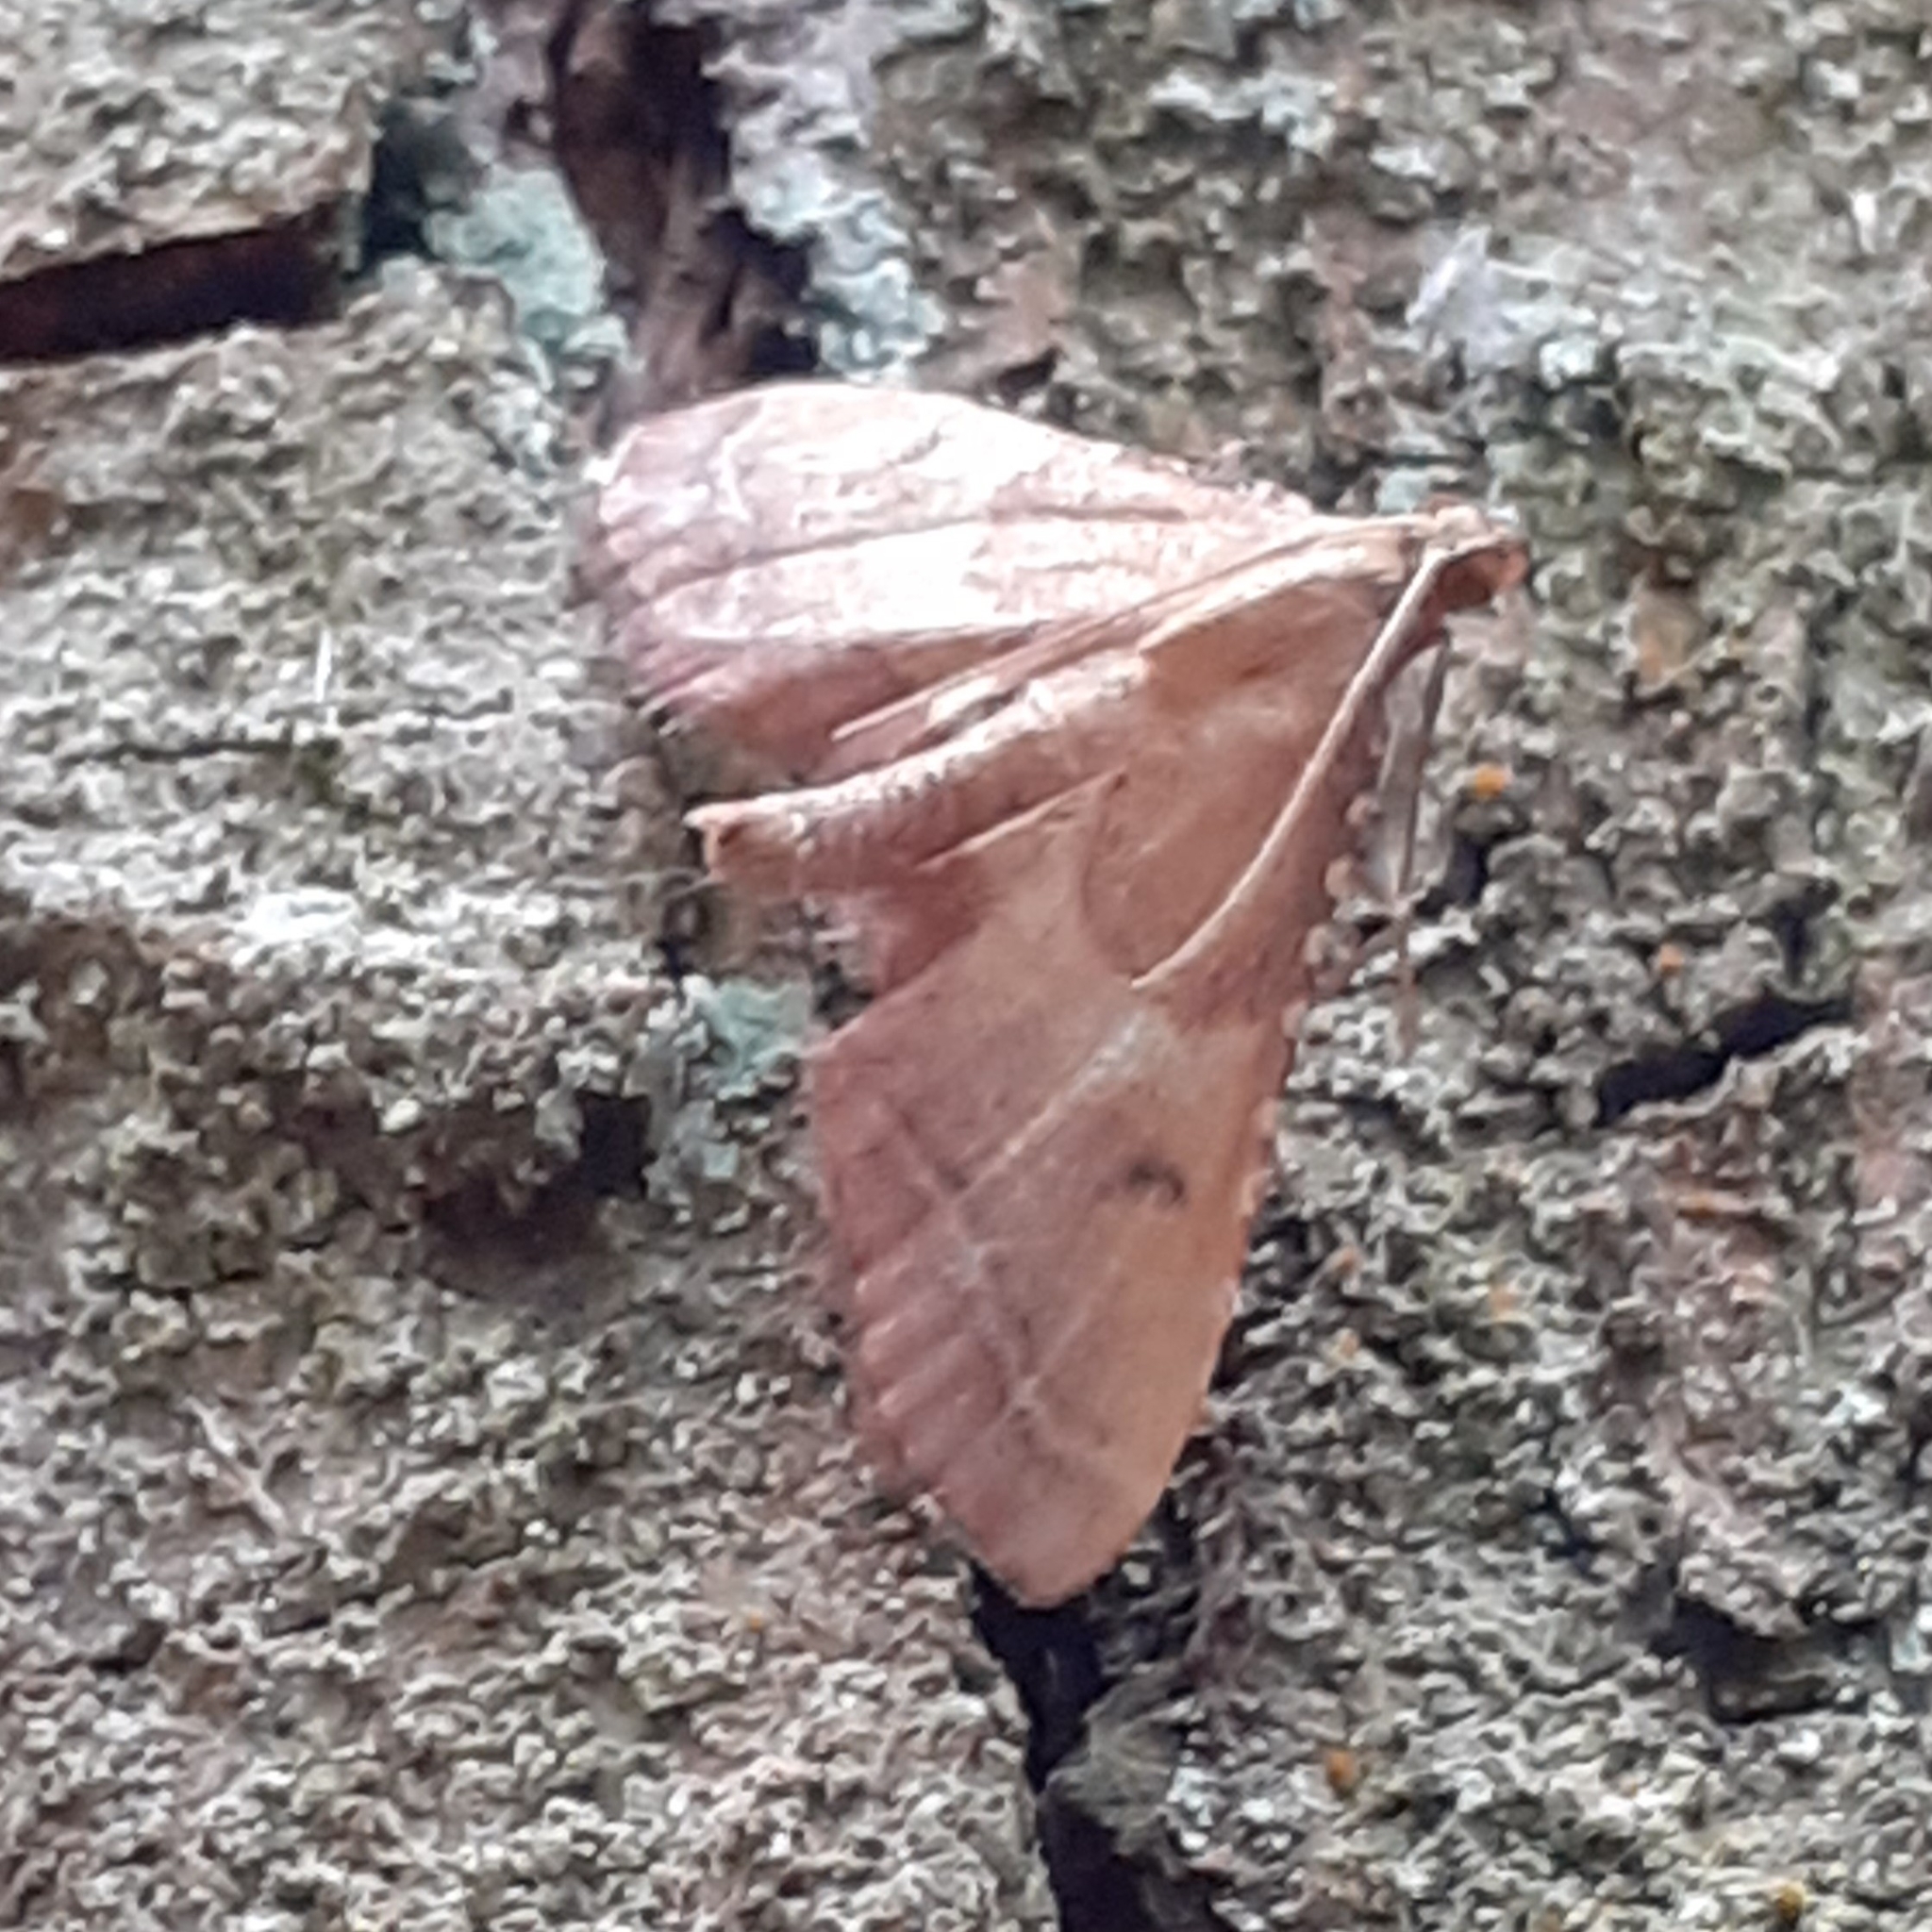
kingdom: Animalia
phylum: Arthropoda
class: Insecta
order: Lepidoptera
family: Pyralidae
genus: Endotricha
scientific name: Endotricha flammealis
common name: Rosy tabby
